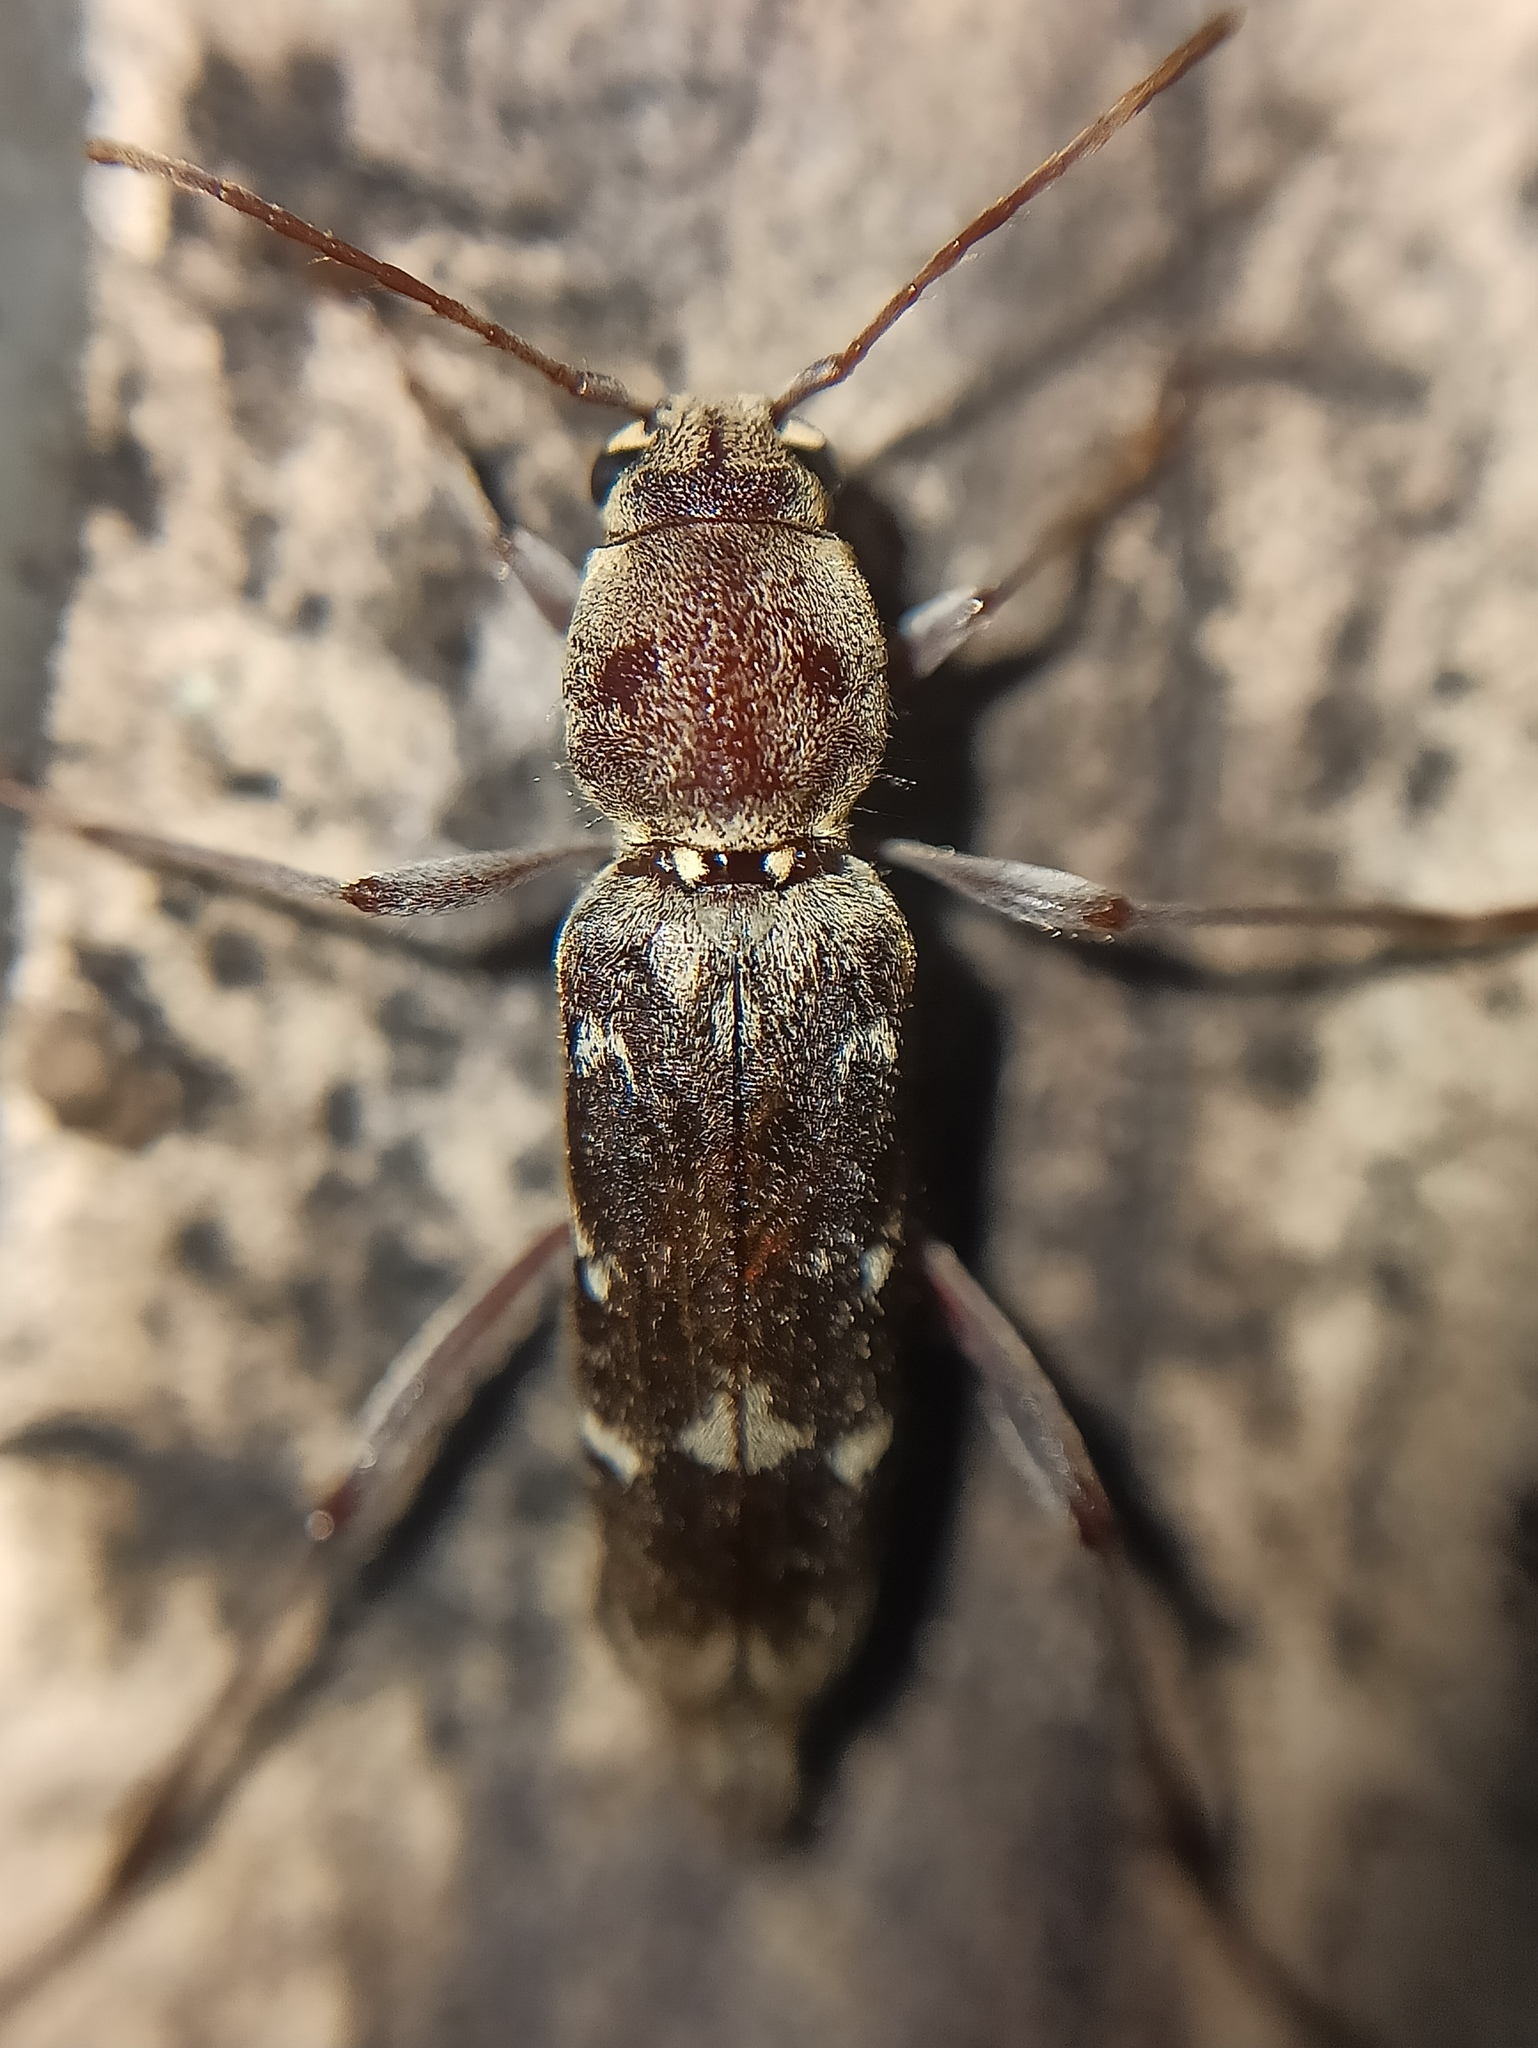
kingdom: Animalia
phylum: Arthropoda
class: Insecta
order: Coleoptera
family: Cerambycidae
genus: Xylotrechus
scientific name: Xylotrechus smei
